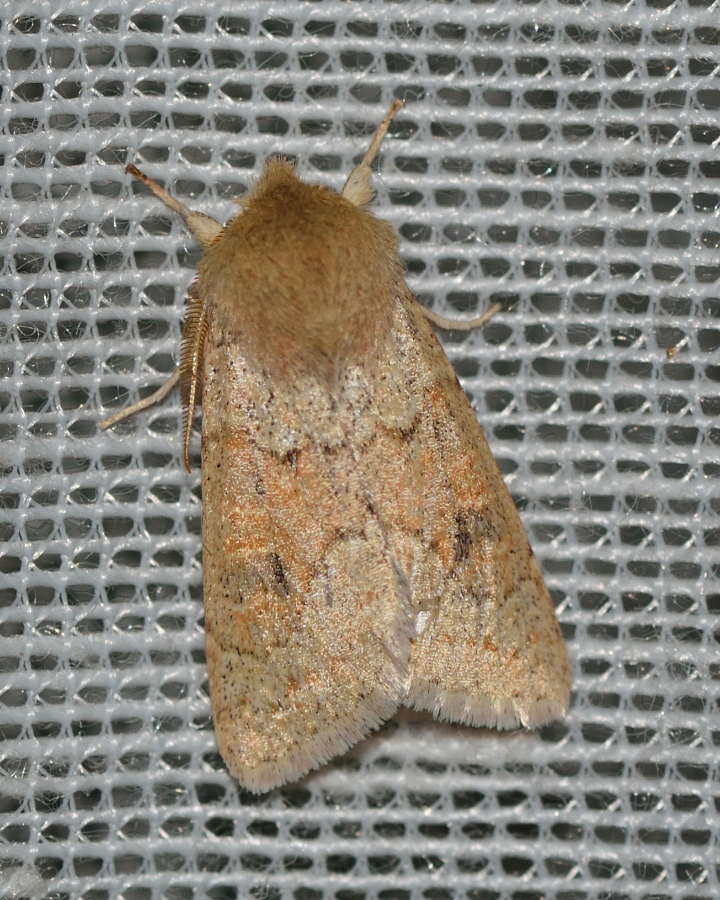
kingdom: Animalia
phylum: Arthropoda
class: Insecta
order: Lepidoptera
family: Noctuidae
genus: Orthosia
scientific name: Orthosia miniosa
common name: Blossom underwing
